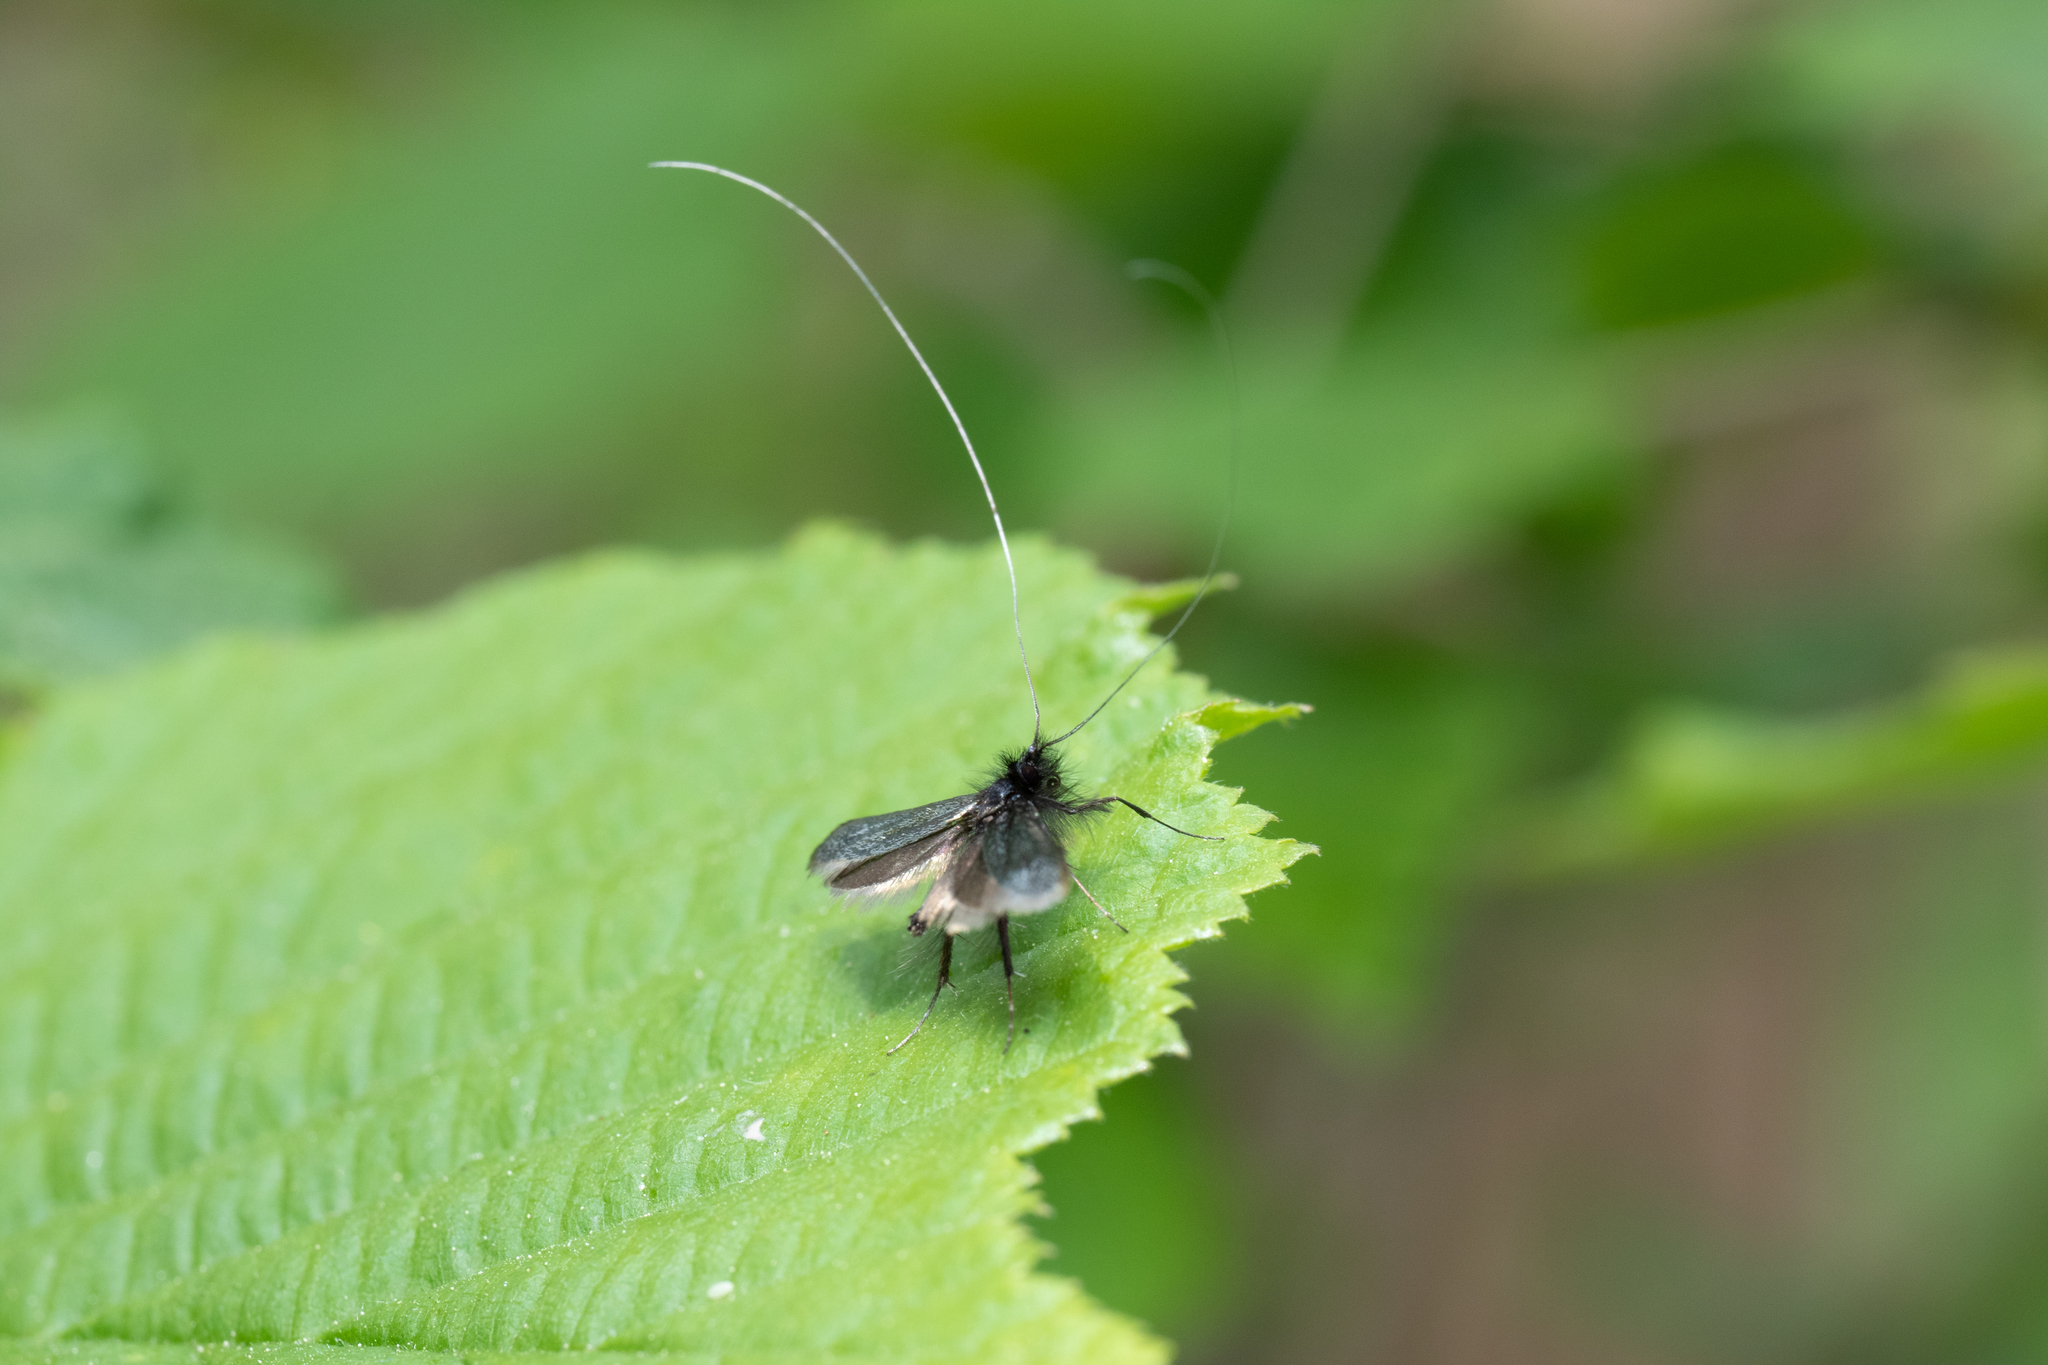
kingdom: Animalia
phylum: Arthropoda
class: Insecta
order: Lepidoptera
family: Adelidae
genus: Adela
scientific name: Adela viridella
